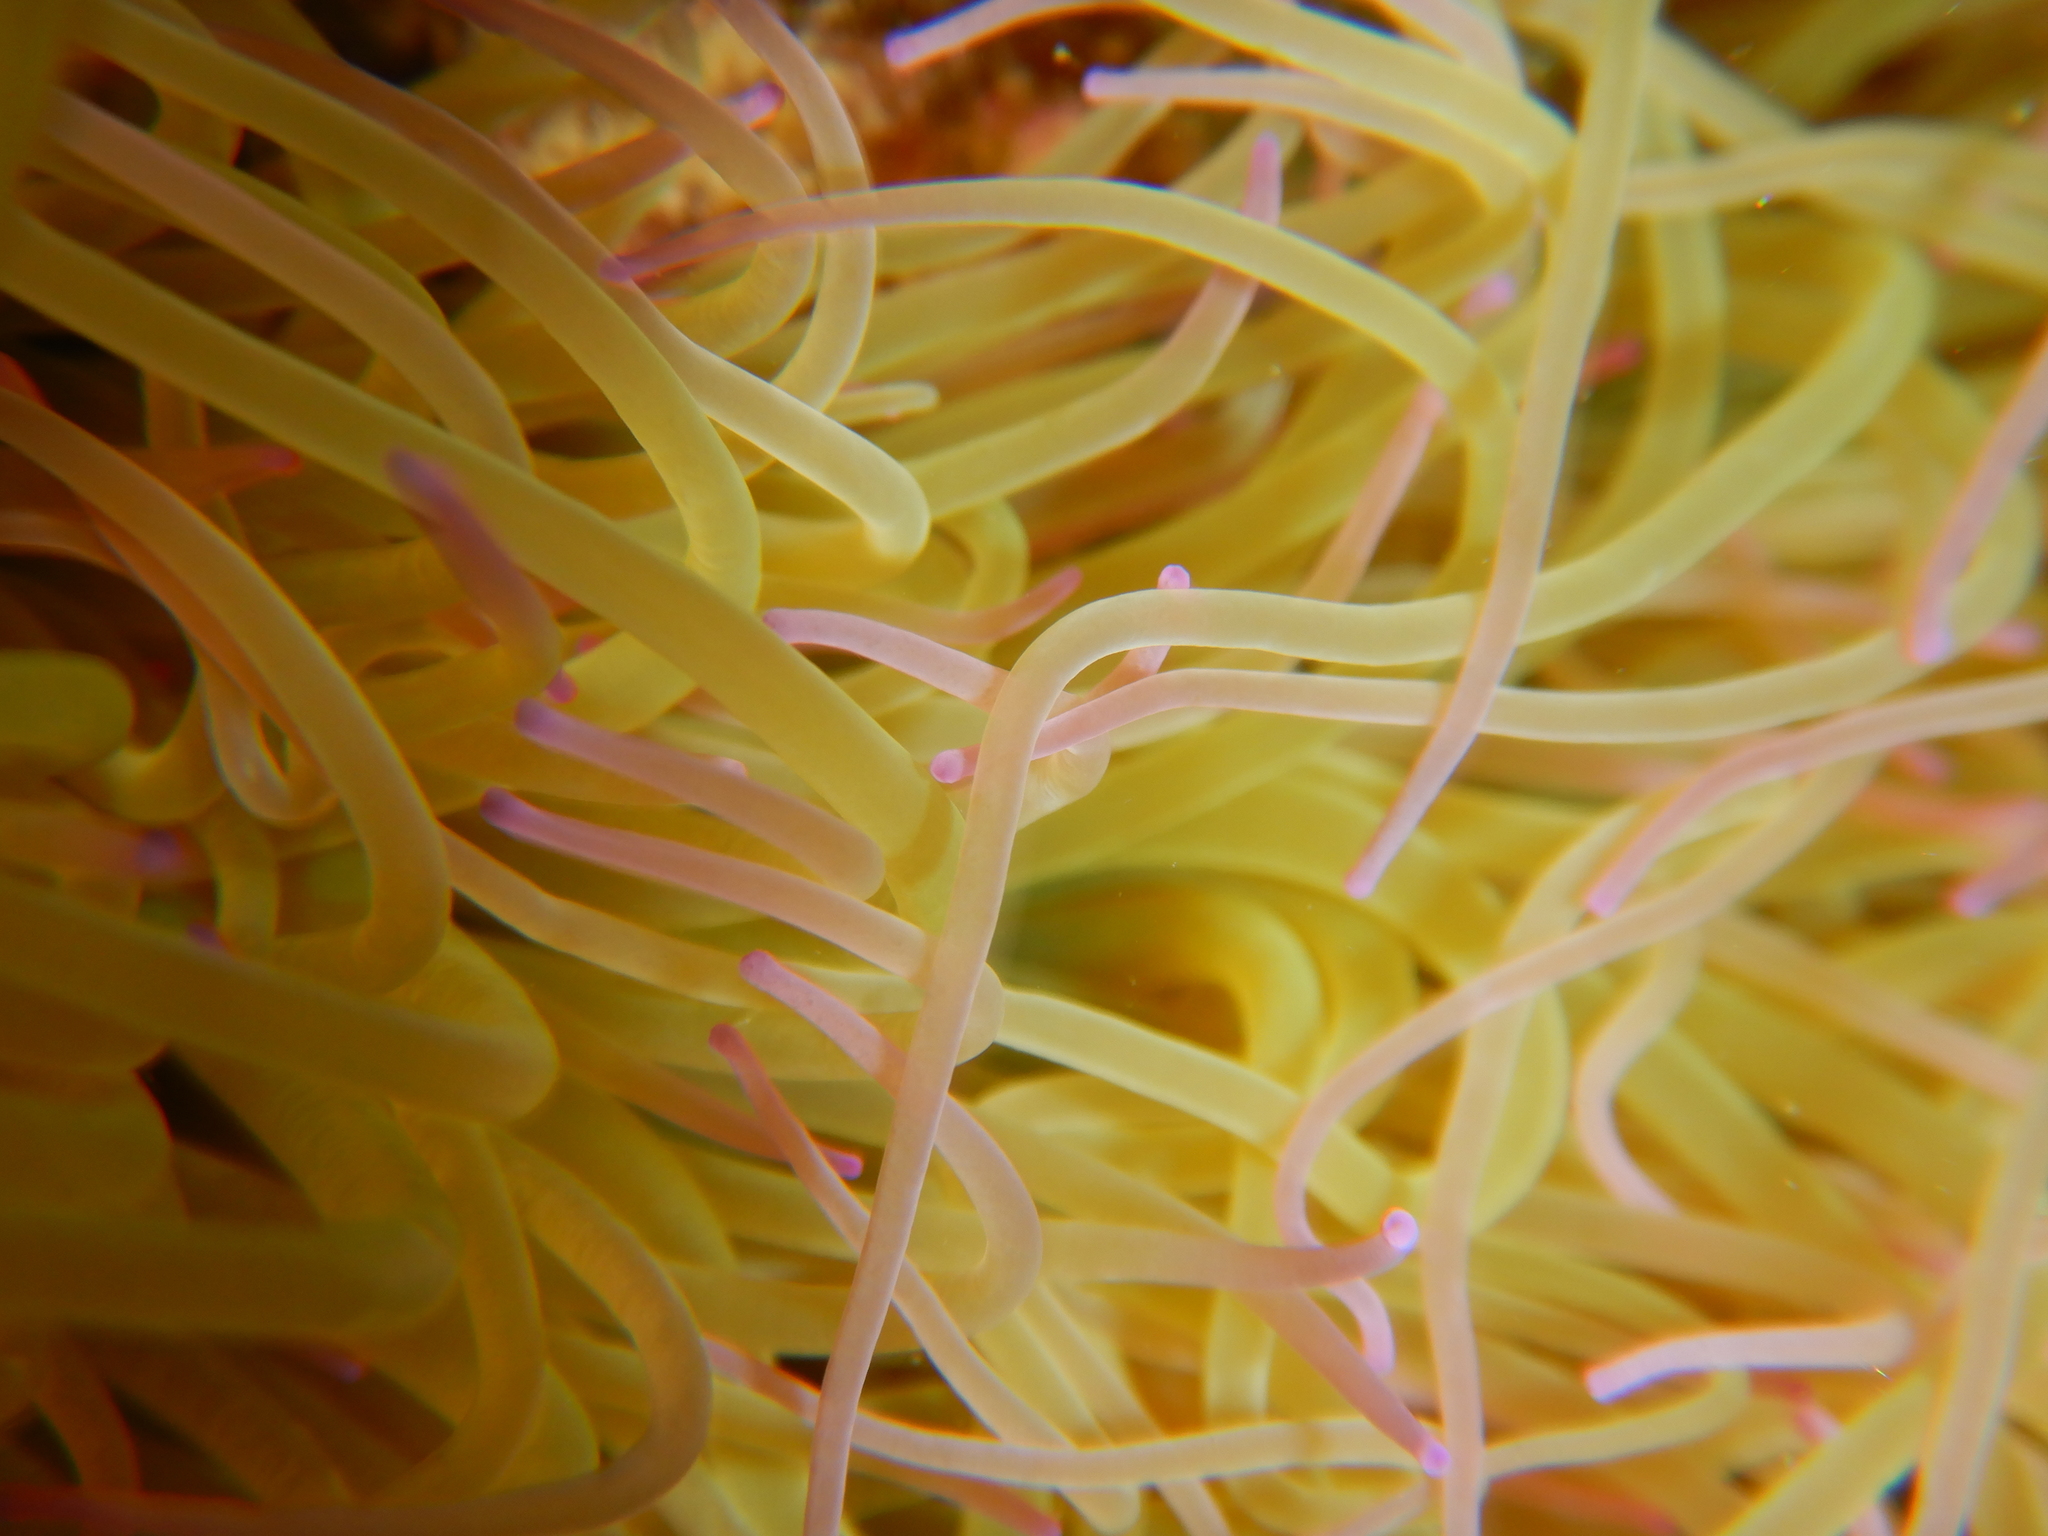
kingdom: Animalia
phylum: Cnidaria
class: Anthozoa
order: Actiniaria
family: Actiniidae
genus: Anemonia
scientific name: Anemonia viridis
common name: Snakelocks anemone
